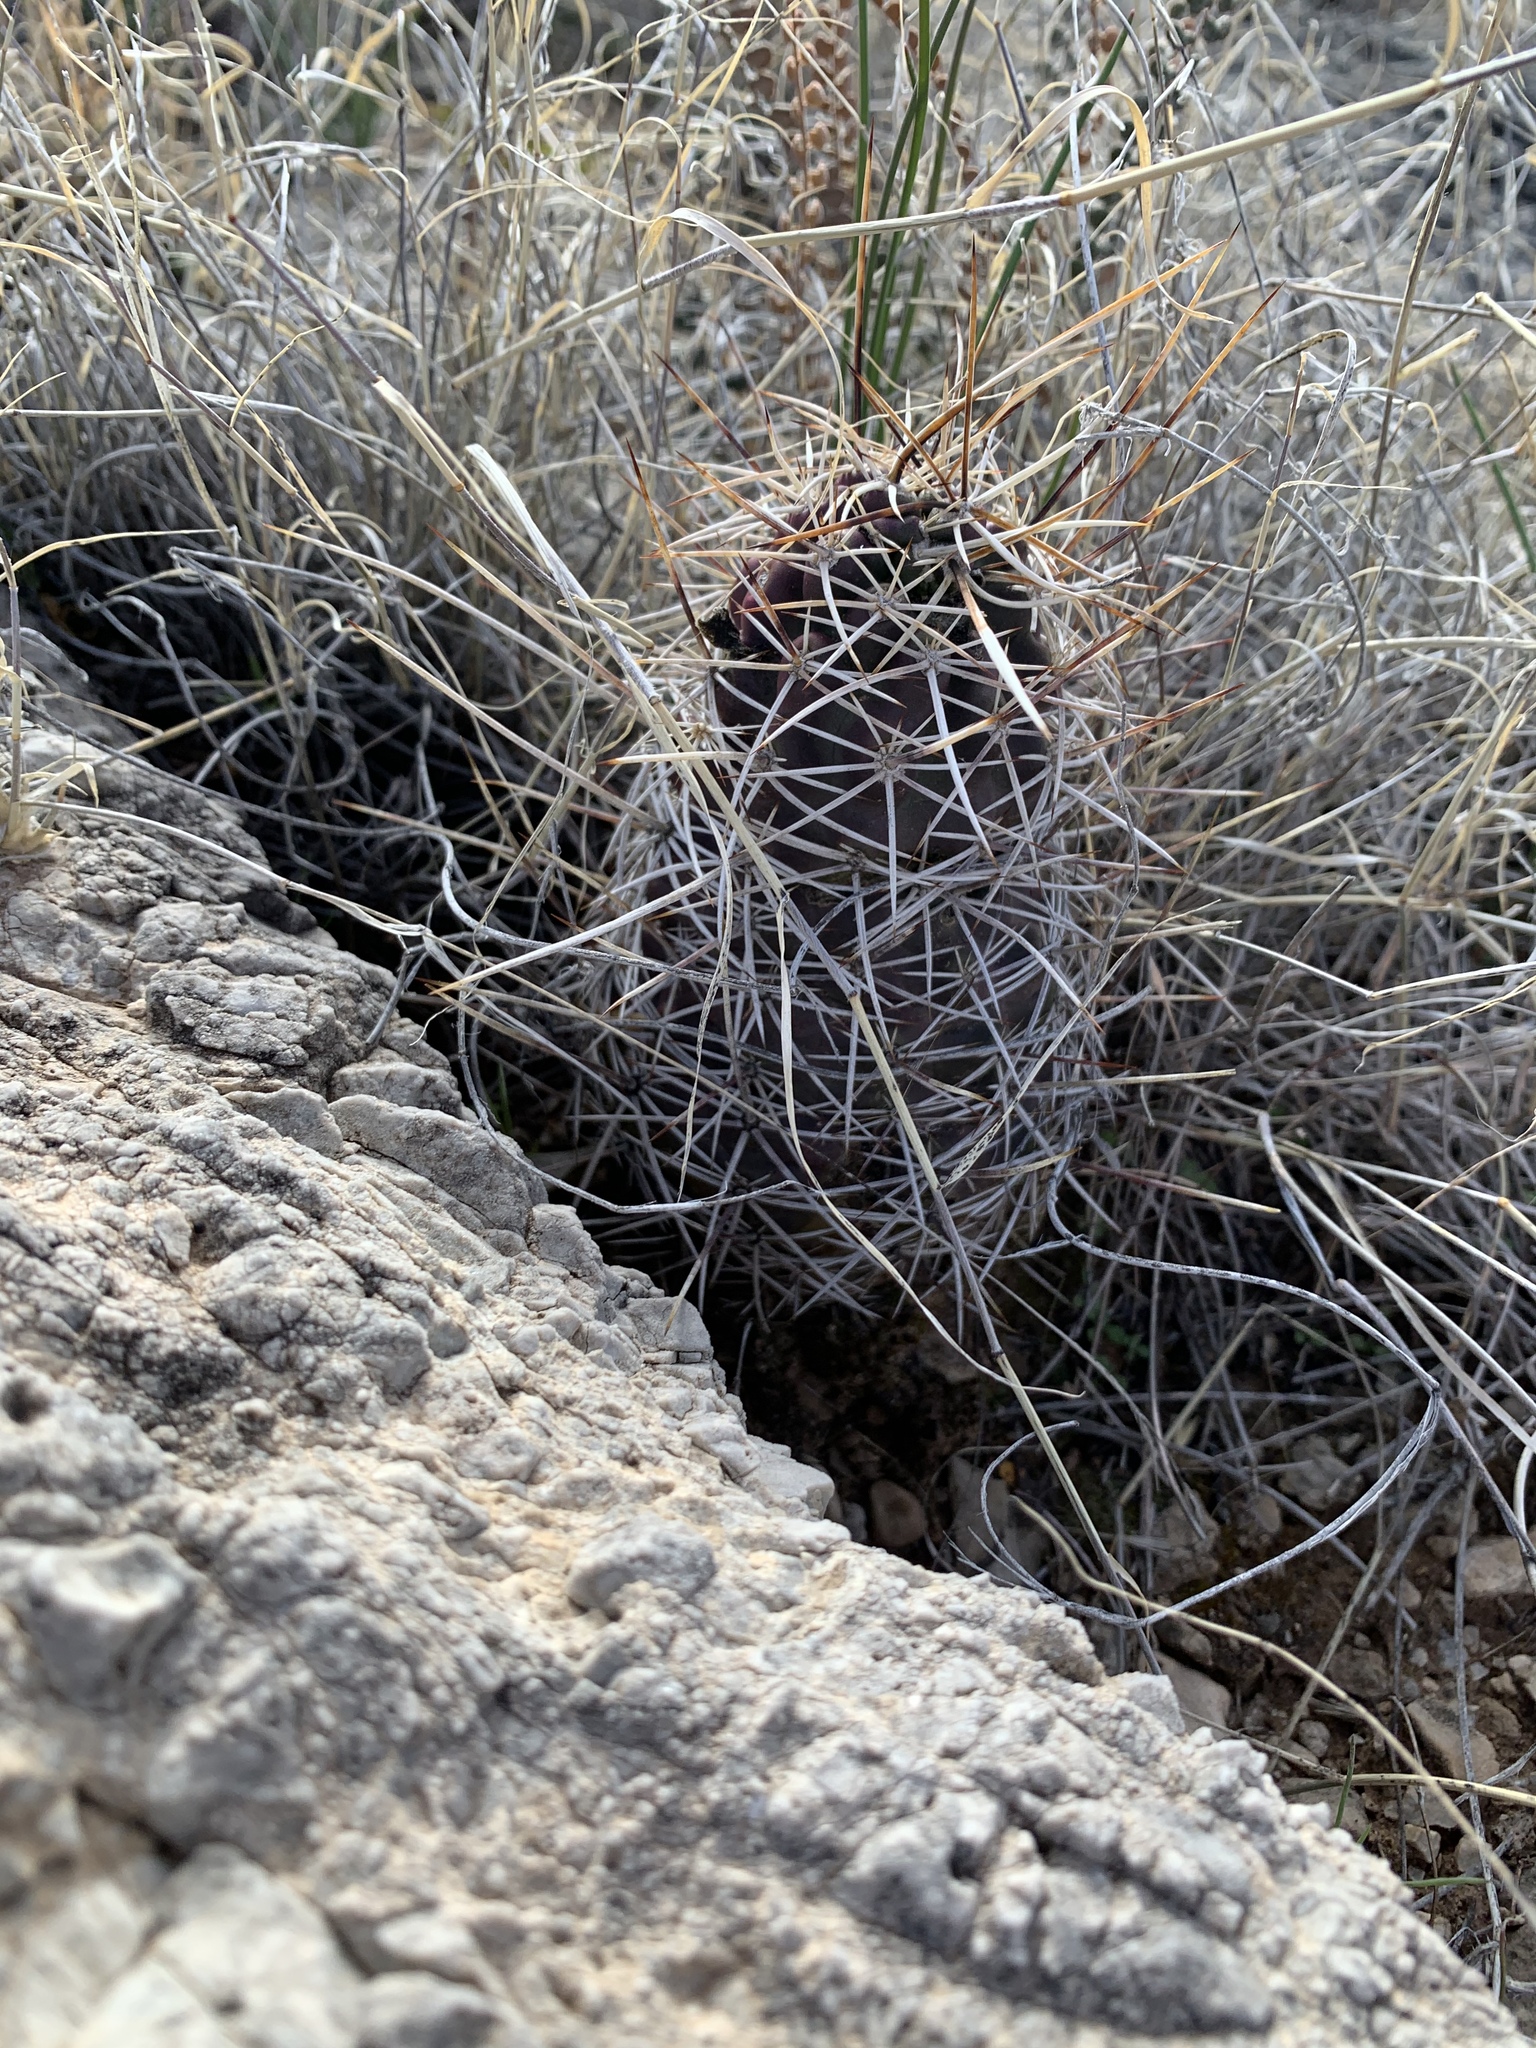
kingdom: Plantae
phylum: Tracheophyta
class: Magnoliopsida
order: Caryophyllales
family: Cactaceae
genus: Echinocereus
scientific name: Echinocereus fendleri
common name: Fendler's hedgehog cactus
